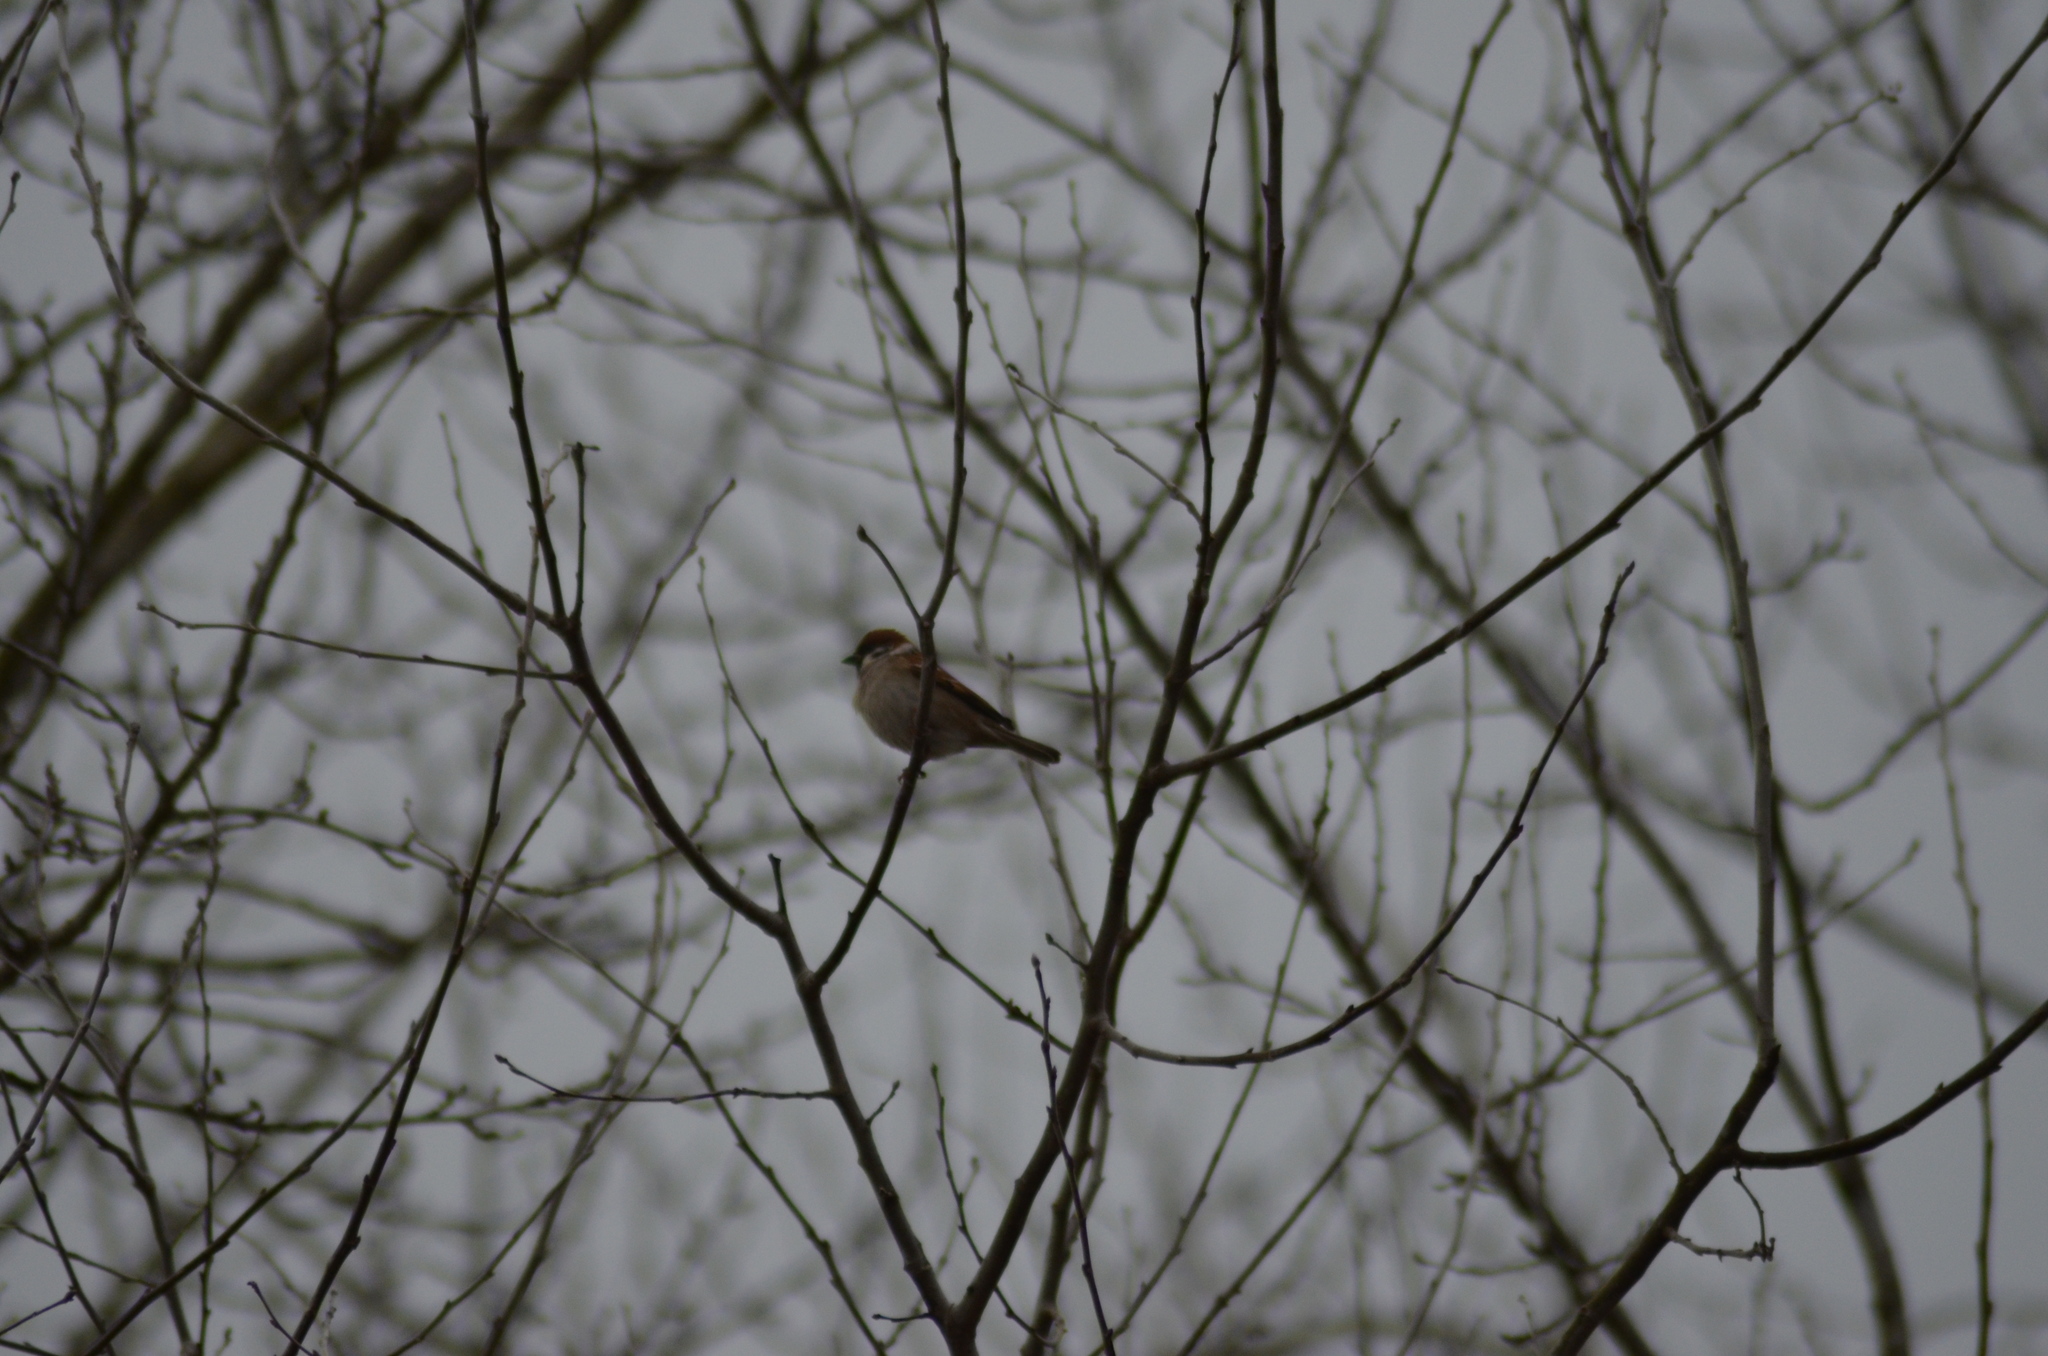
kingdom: Animalia
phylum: Chordata
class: Aves
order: Passeriformes
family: Passeridae
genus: Passer
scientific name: Passer montanus
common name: Eurasian tree sparrow
